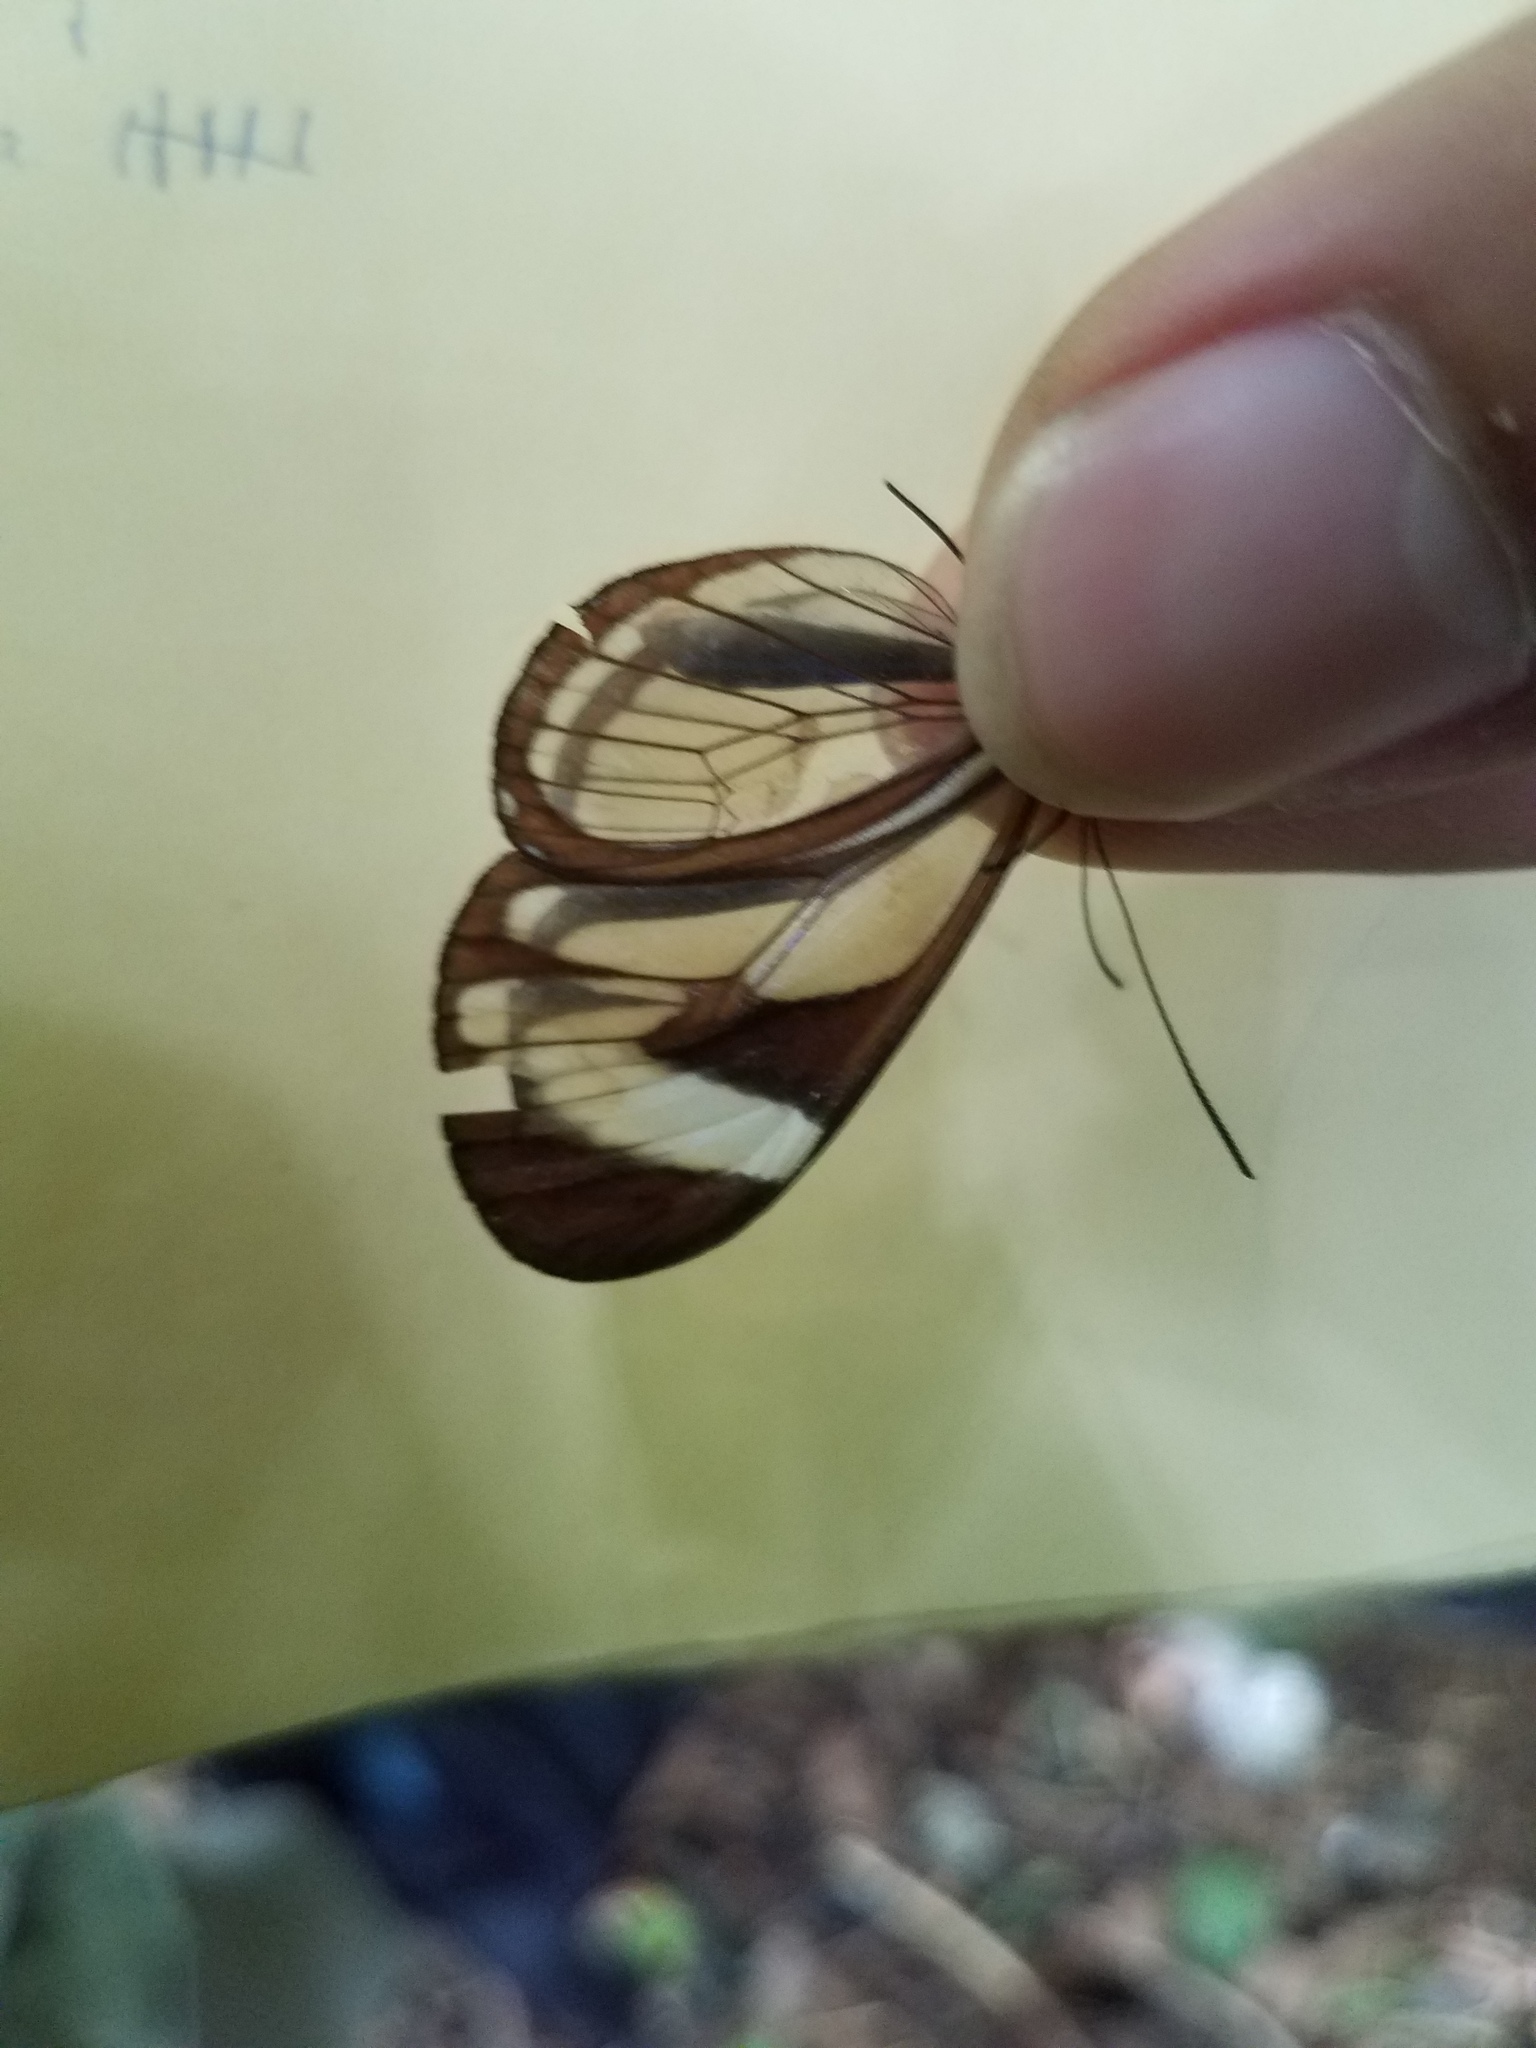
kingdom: Animalia
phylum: Arthropoda
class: Insecta
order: Lepidoptera
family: Nymphalidae
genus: Ithomia
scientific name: Ithomia patilla
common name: Patilla clearwing
